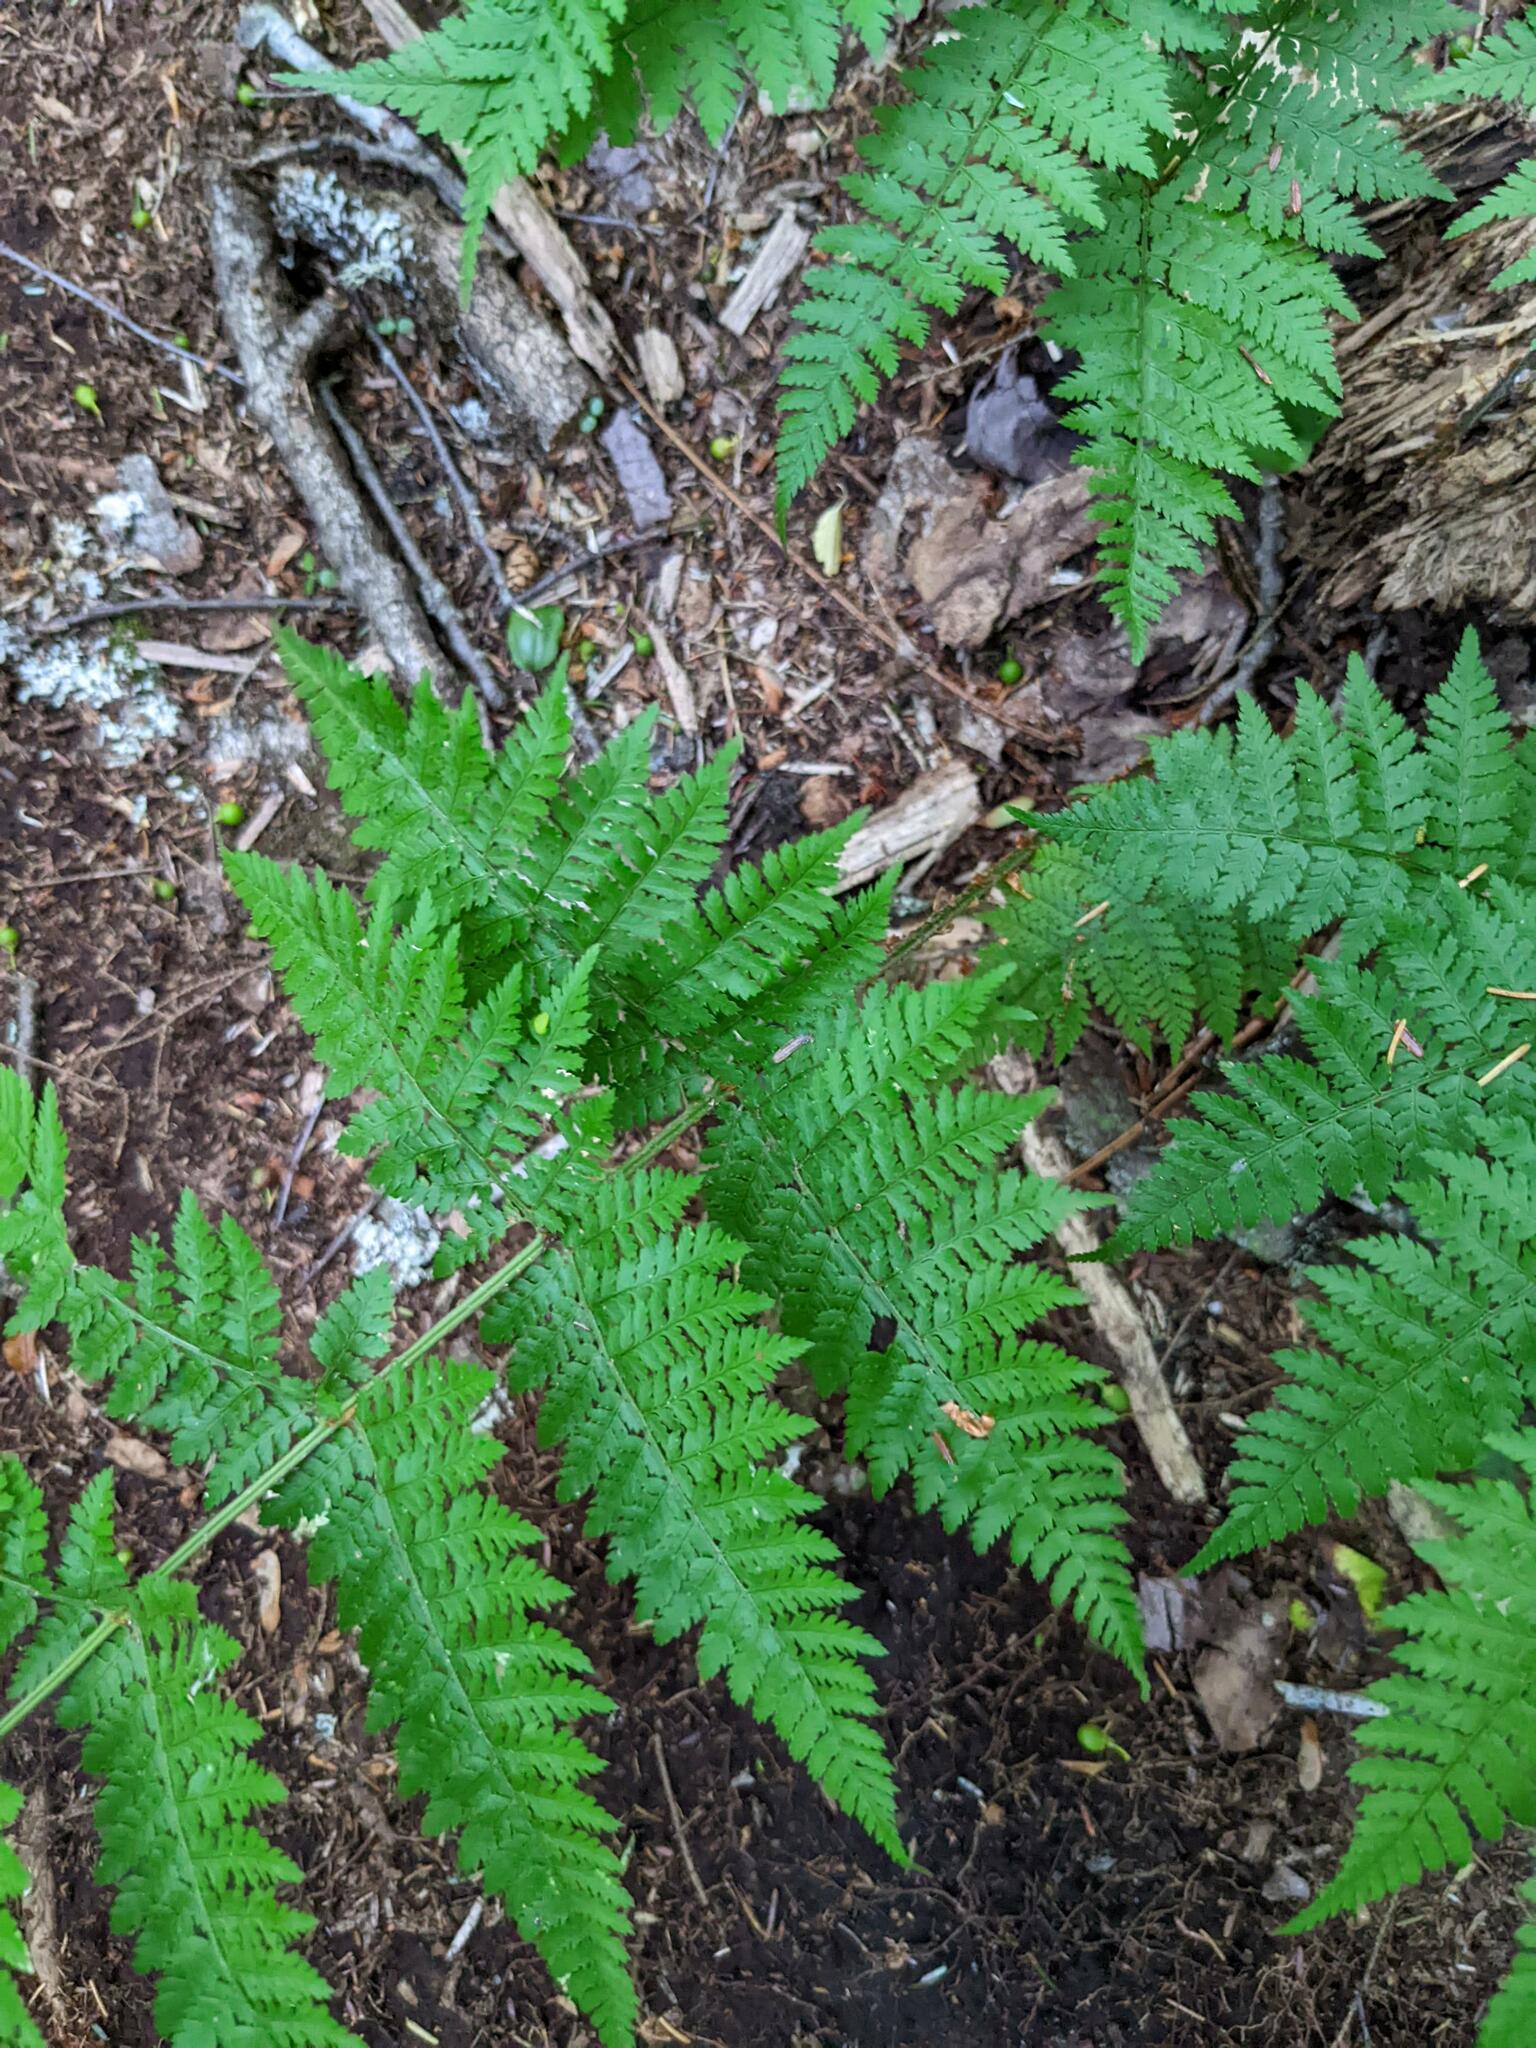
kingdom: Plantae
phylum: Tracheophyta
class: Polypodiopsida
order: Polypodiales
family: Dryopteridaceae
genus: Dryopteris
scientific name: Dryopteris intermedia
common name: Evergreen wood fern
